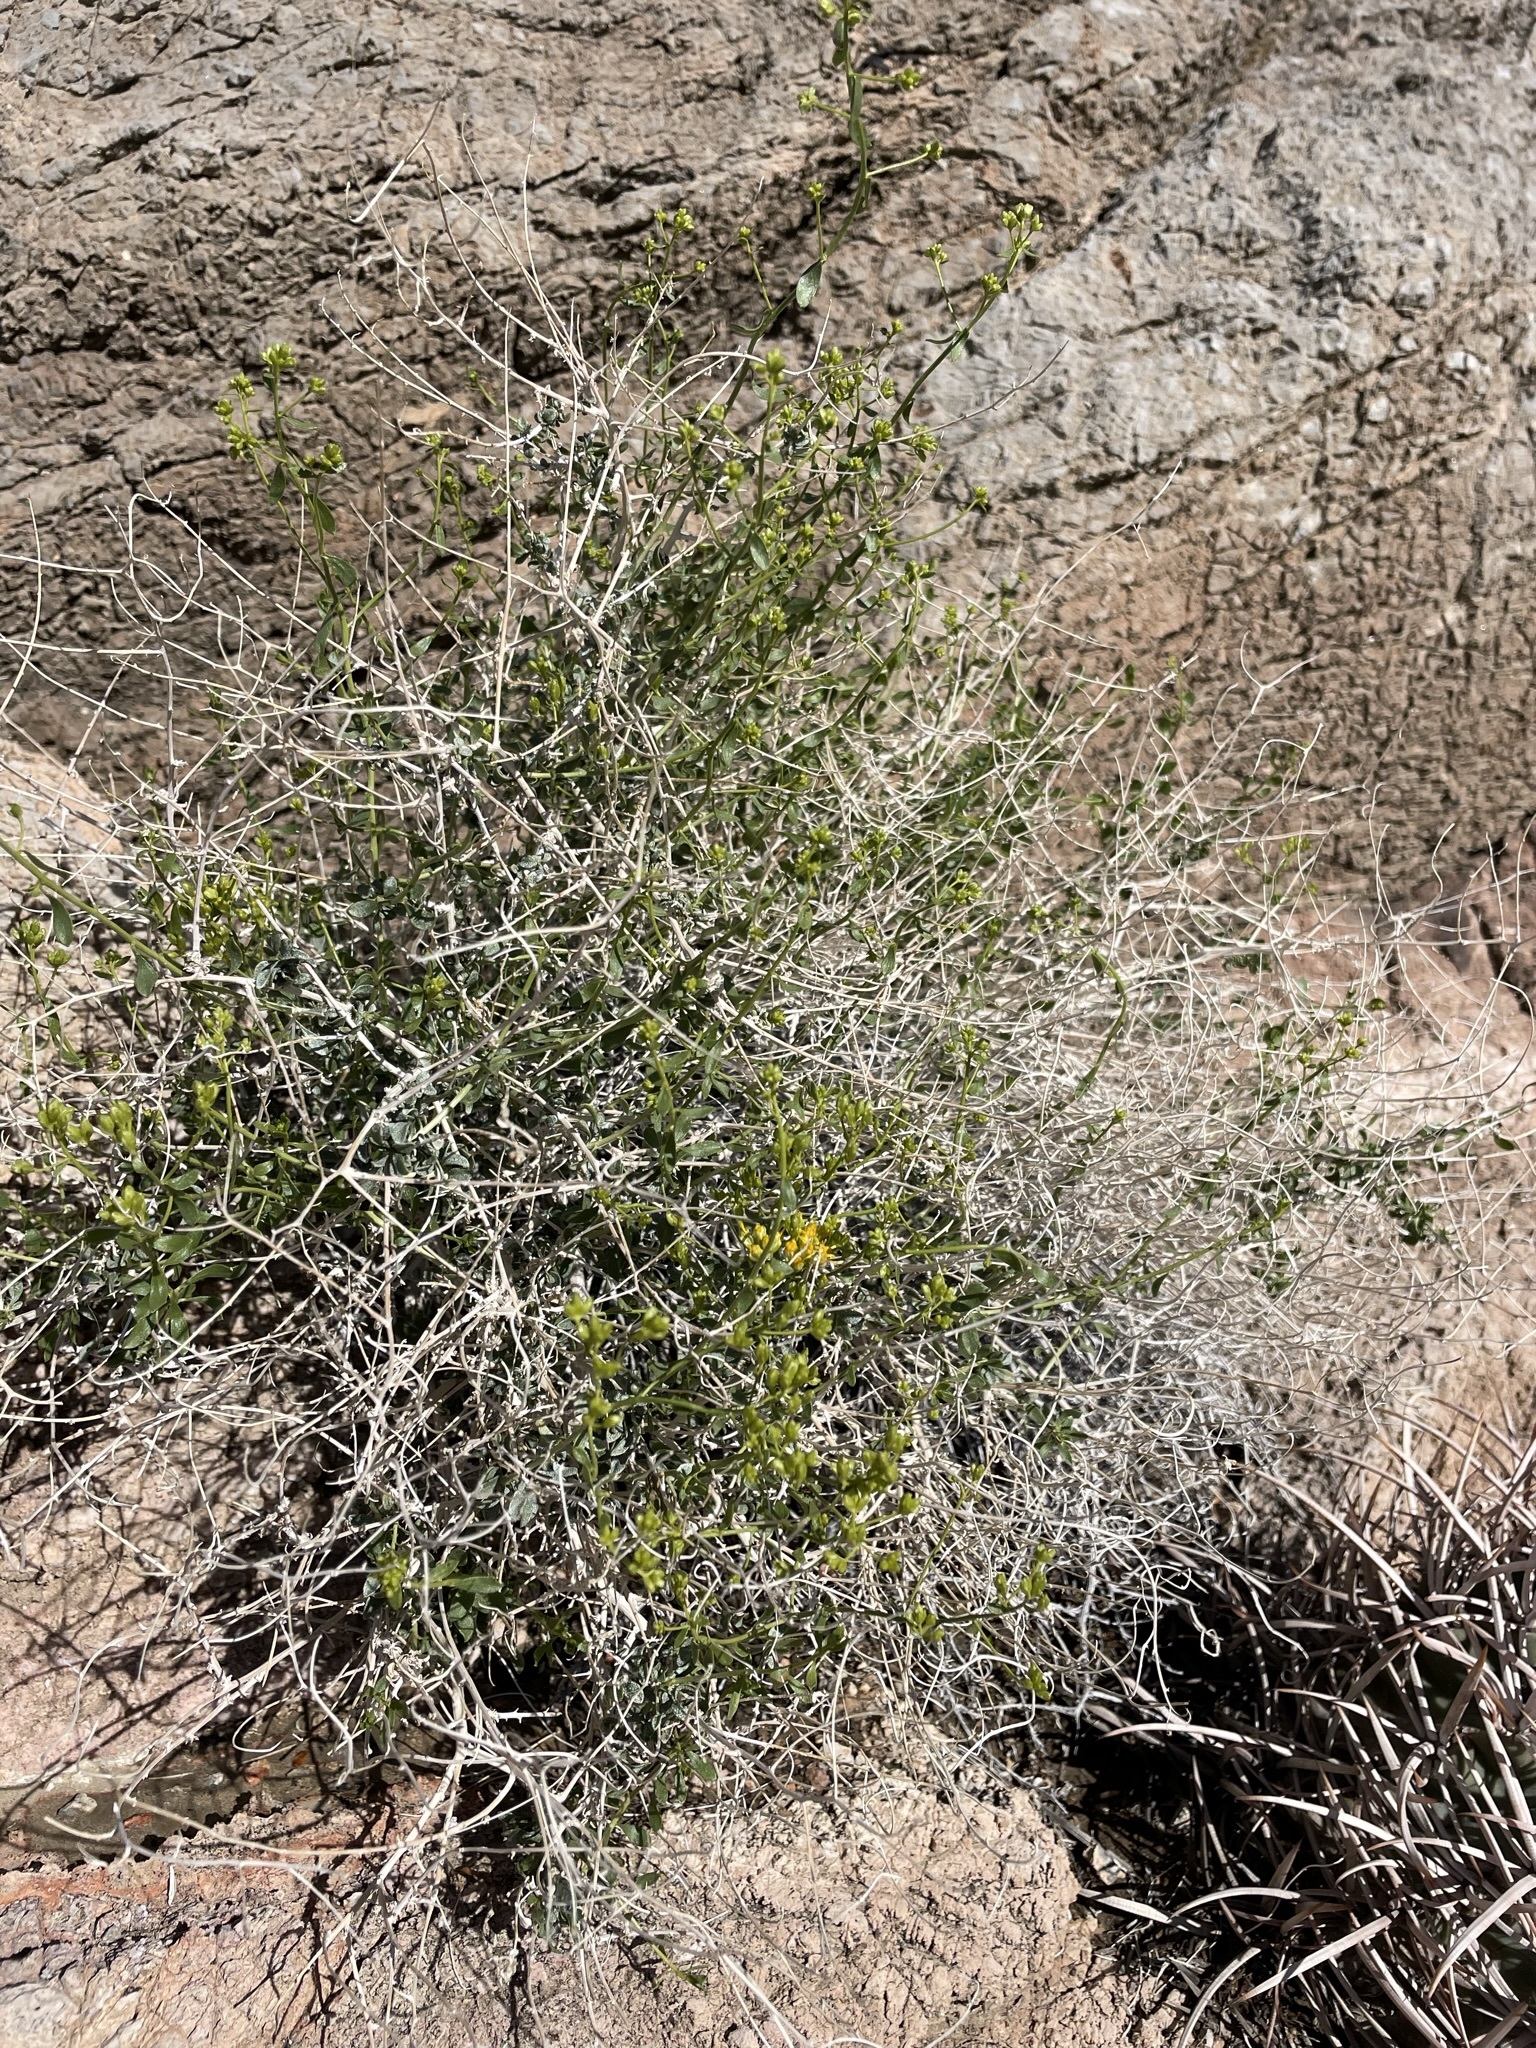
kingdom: Plantae
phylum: Tracheophyta
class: Magnoliopsida
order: Asterales
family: Asteraceae
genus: Amphipappus
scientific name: Amphipappus fremontii
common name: Fremont's chaffbush
